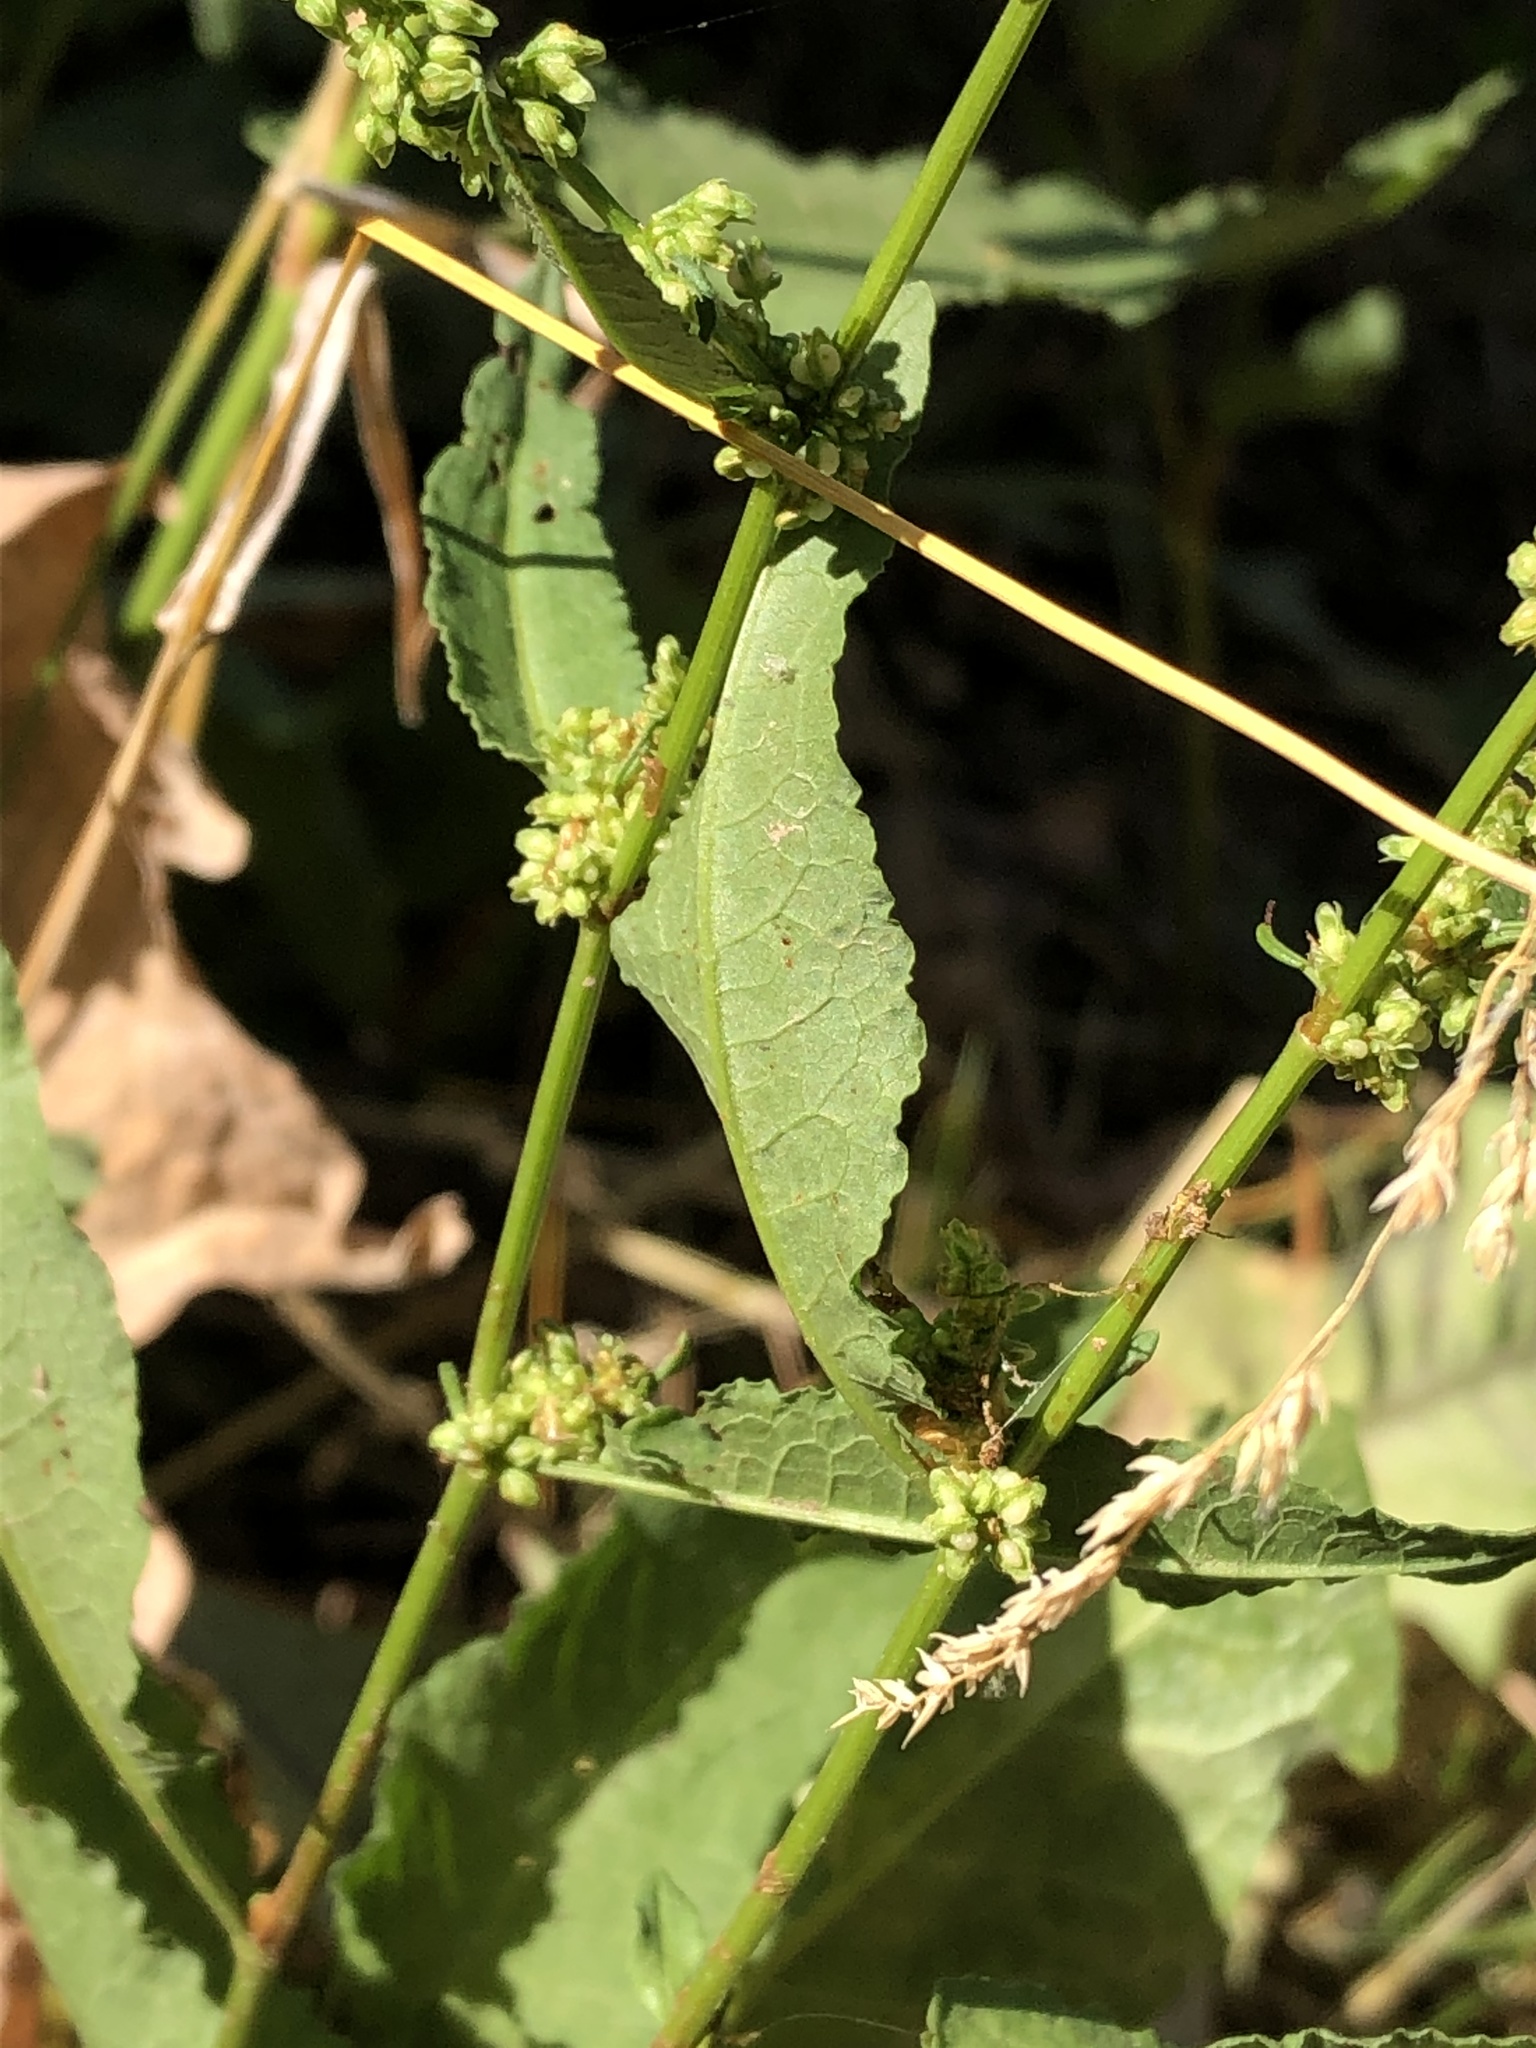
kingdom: Plantae
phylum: Tracheophyta
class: Magnoliopsida
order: Caryophyllales
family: Polygonaceae
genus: Rumex
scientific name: Rumex conglomeratus
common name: Clustered dock
